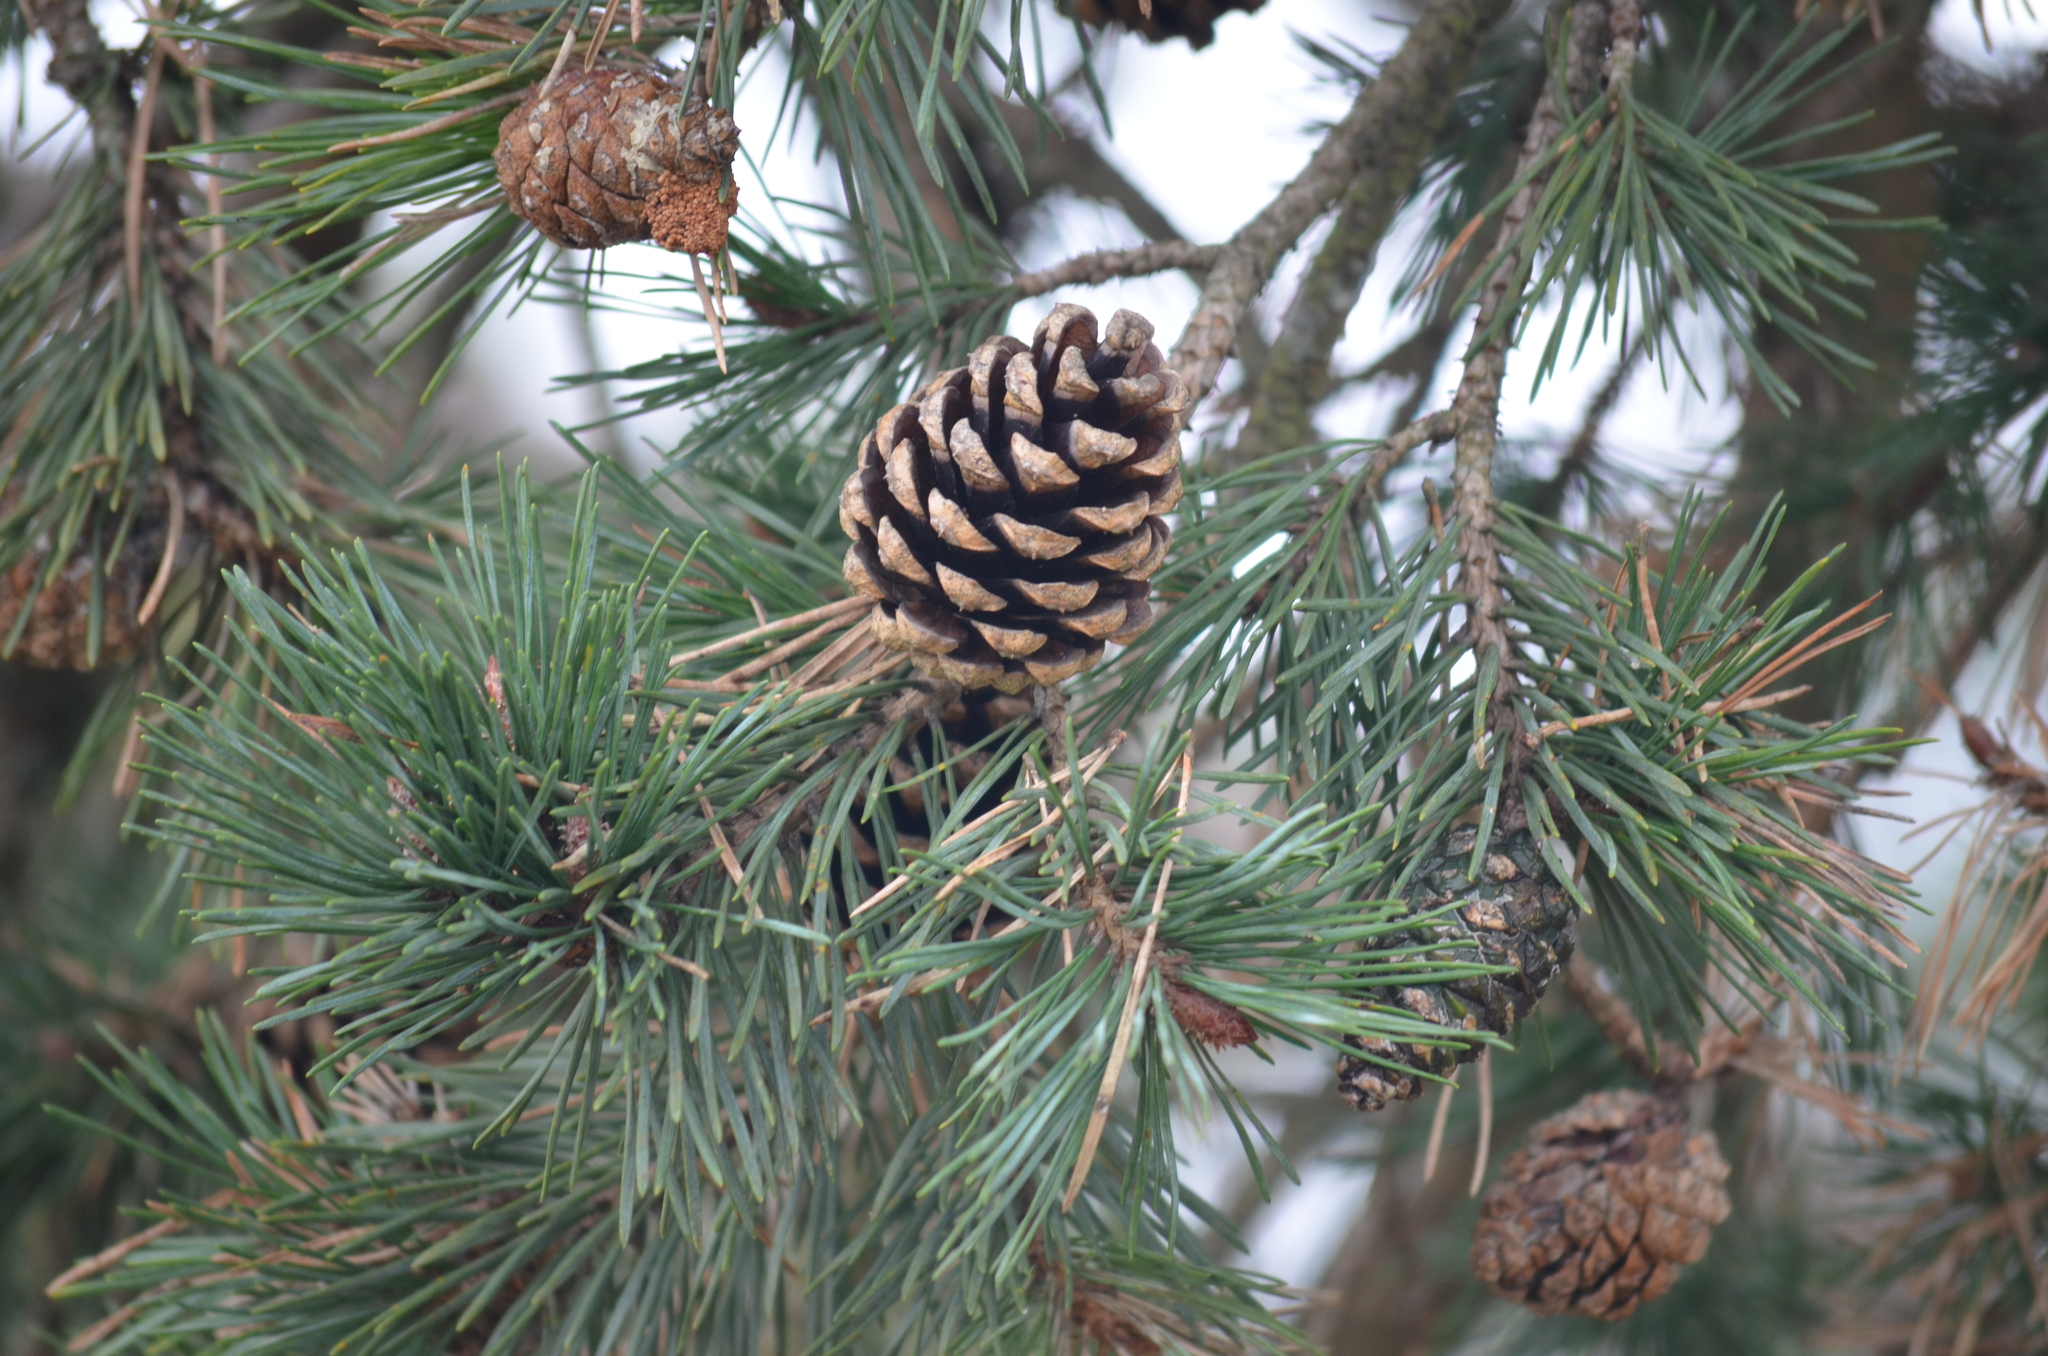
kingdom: Plantae
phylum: Tracheophyta
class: Pinopsida
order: Pinales
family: Pinaceae
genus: Pinus
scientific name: Pinus sylvestris
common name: Scots pine
